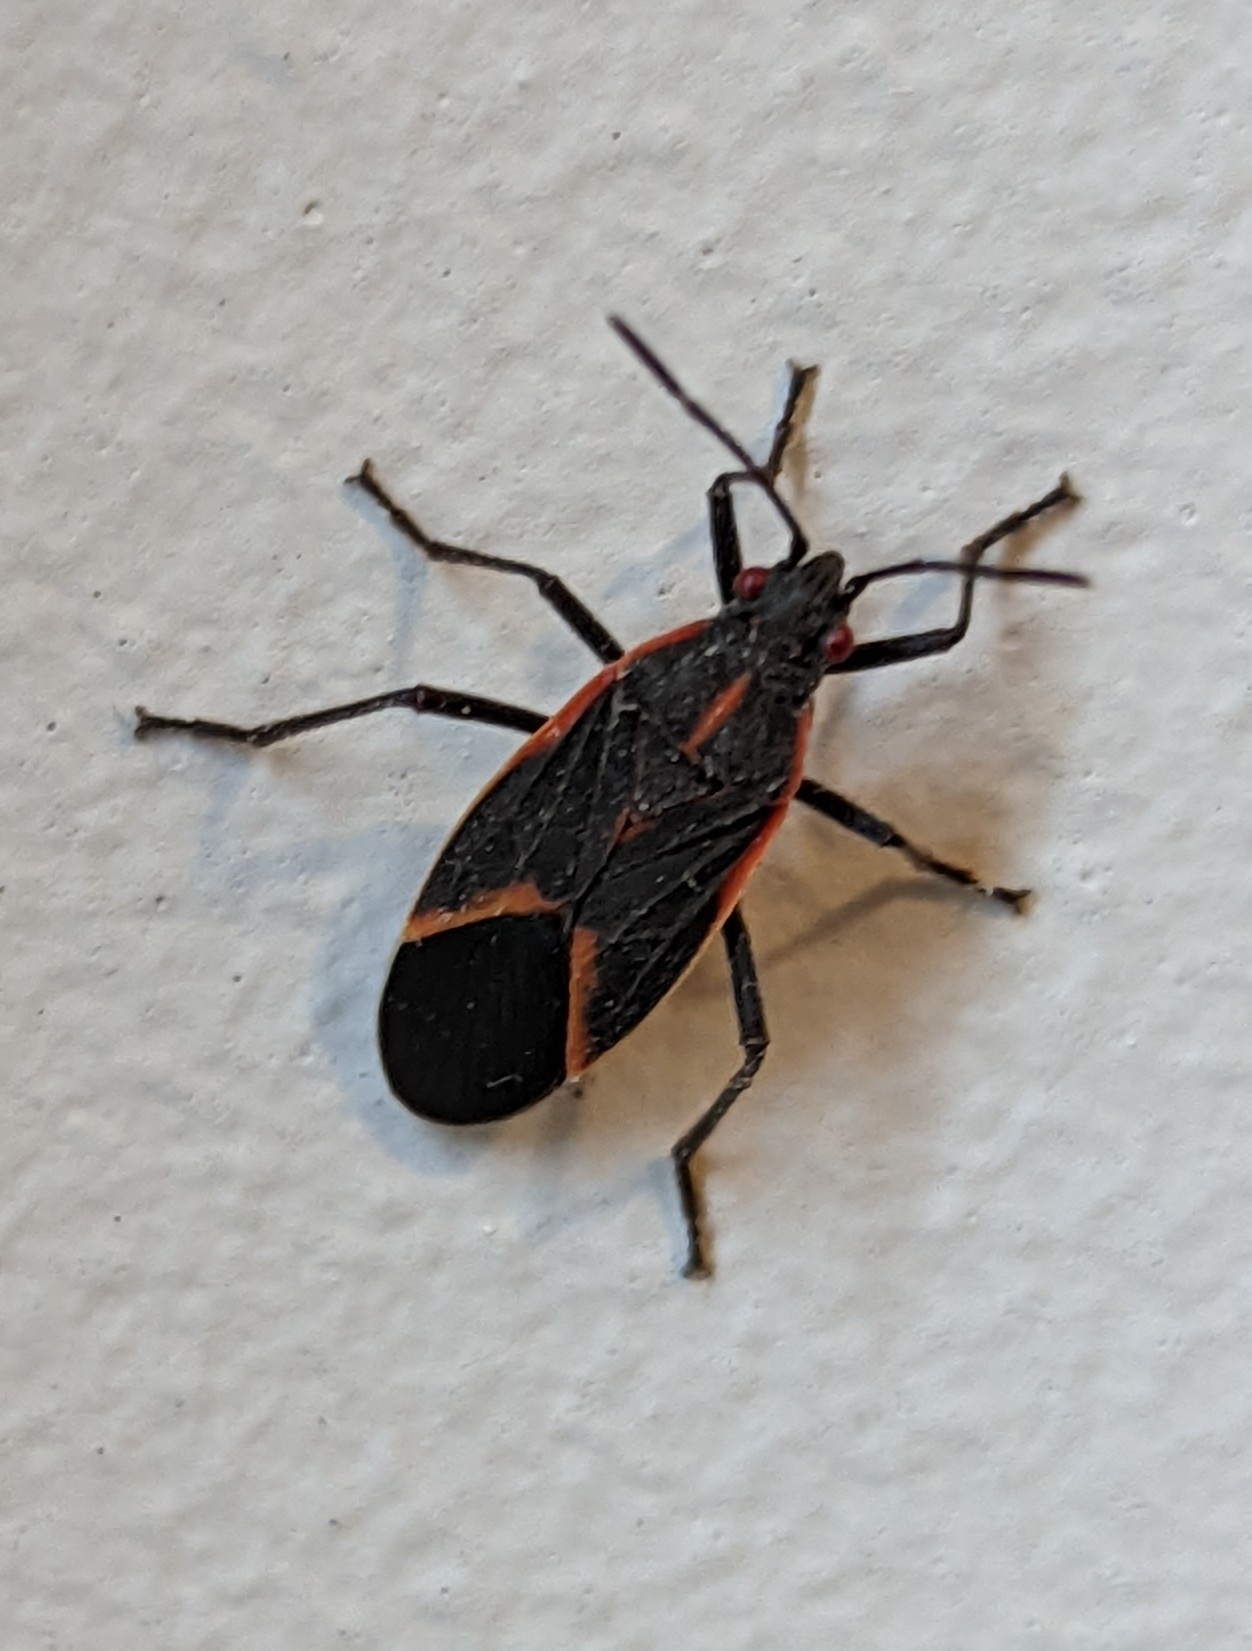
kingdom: Animalia
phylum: Arthropoda
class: Insecta
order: Hemiptera
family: Rhopalidae
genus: Boisea
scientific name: Boisea trivittata
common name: Boxelder bug
